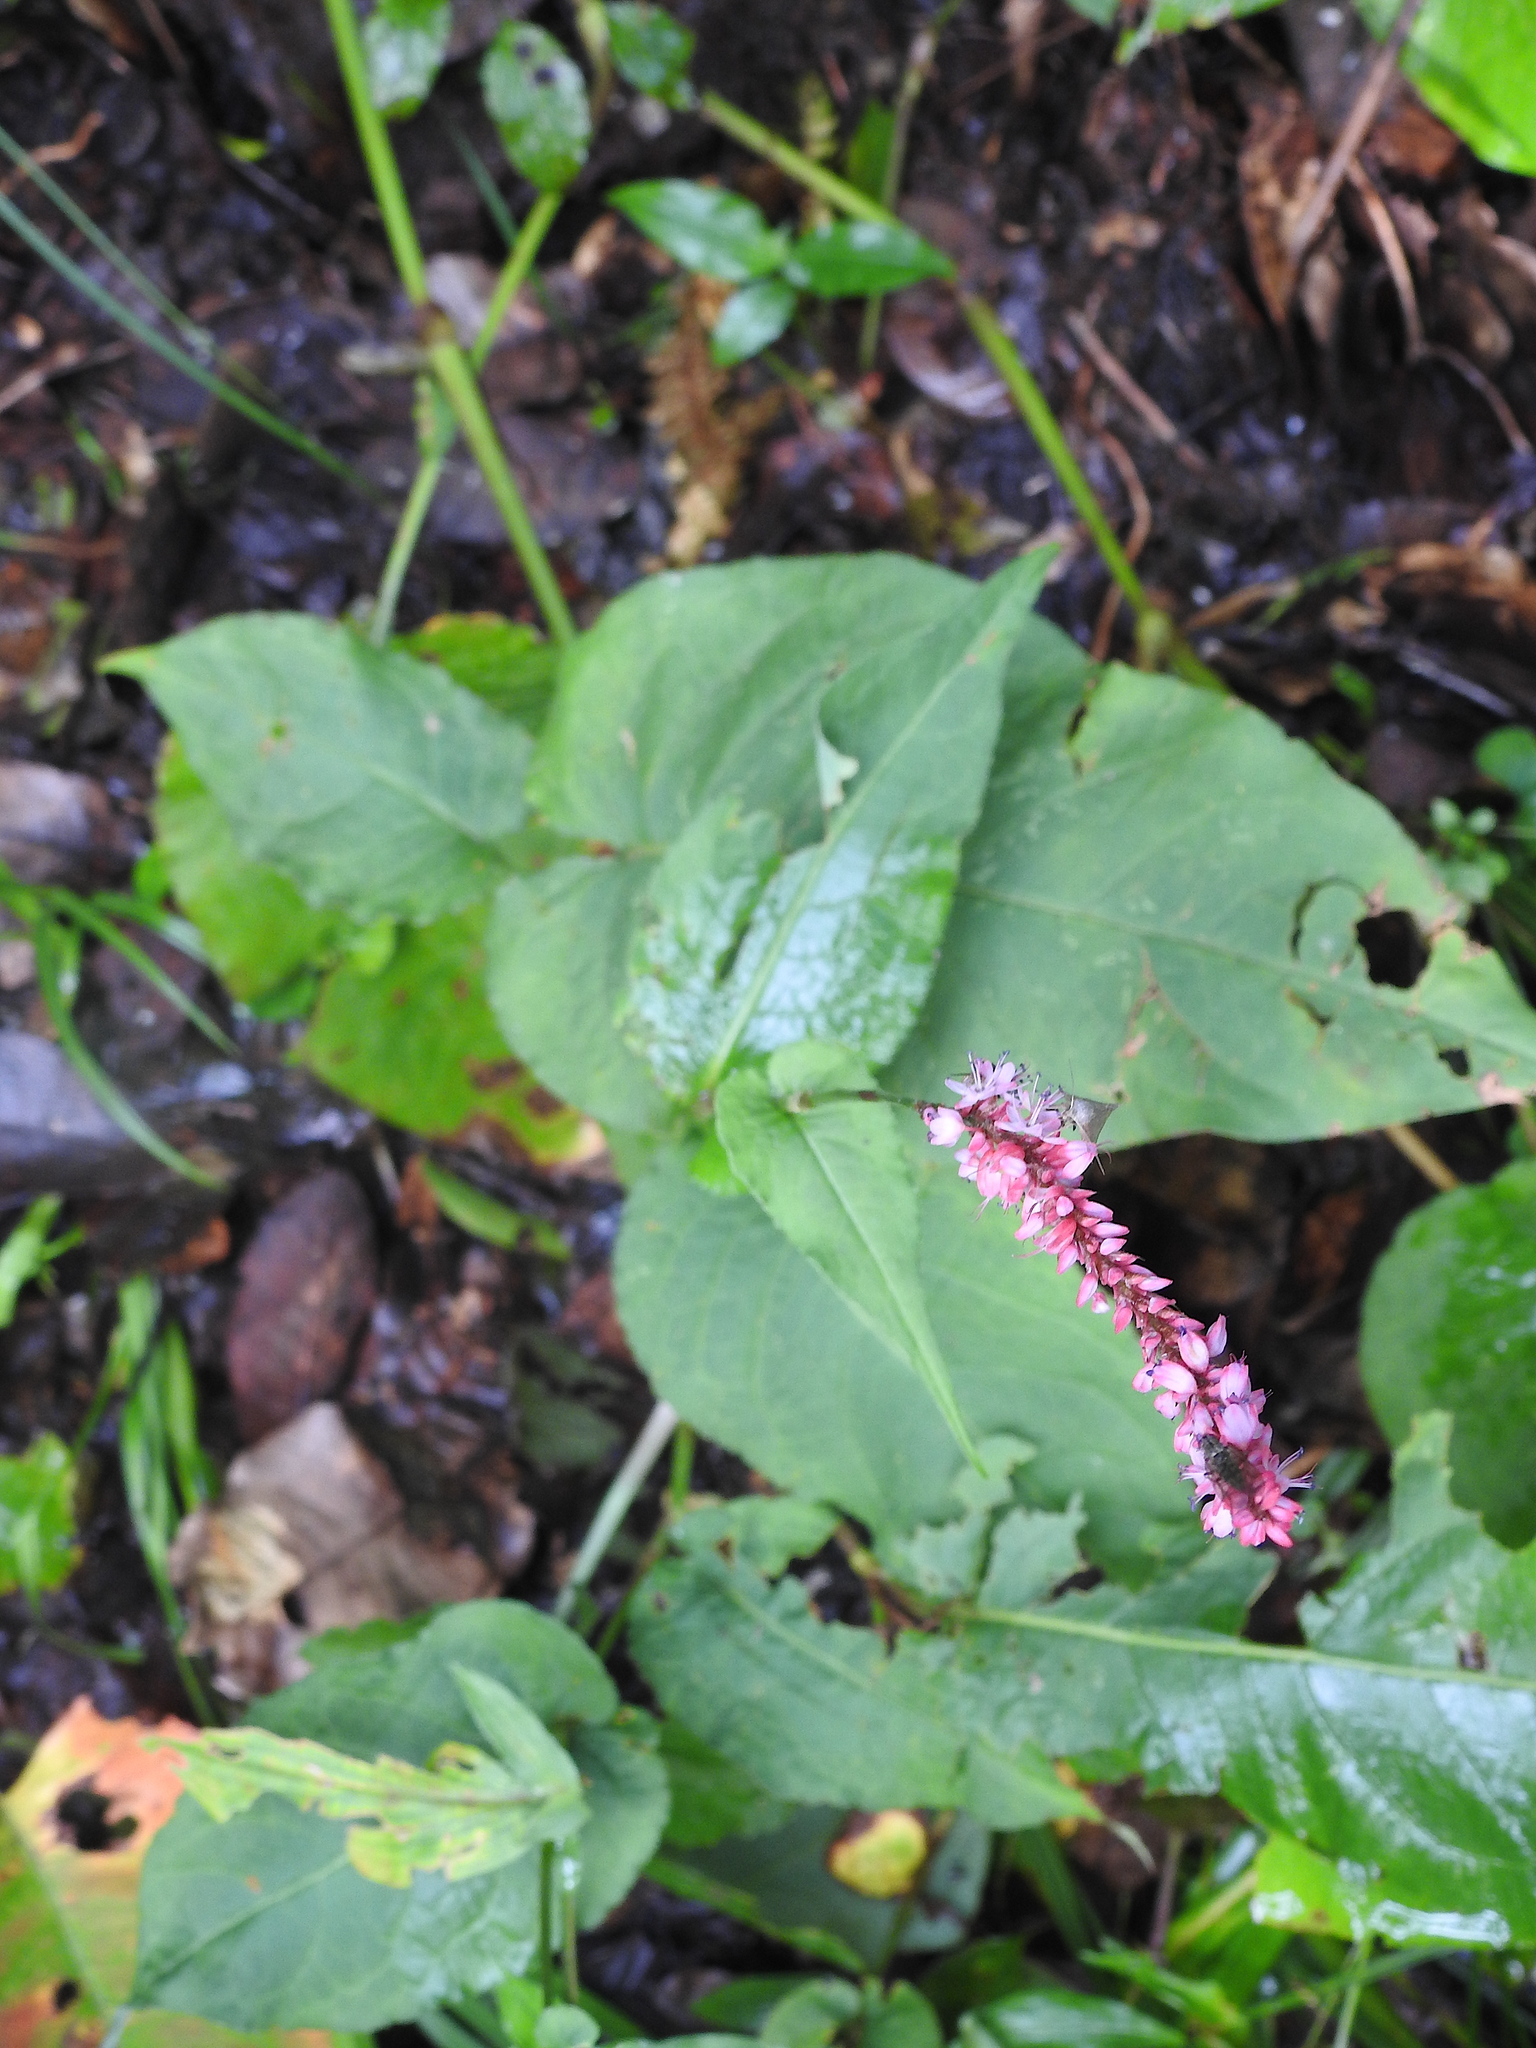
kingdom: Plantae
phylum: Tracheophyta
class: Magnoliopsida
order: Caryophyllales
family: Polygonaceae
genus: Bistorta
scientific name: Bistorta amplexicaulis
